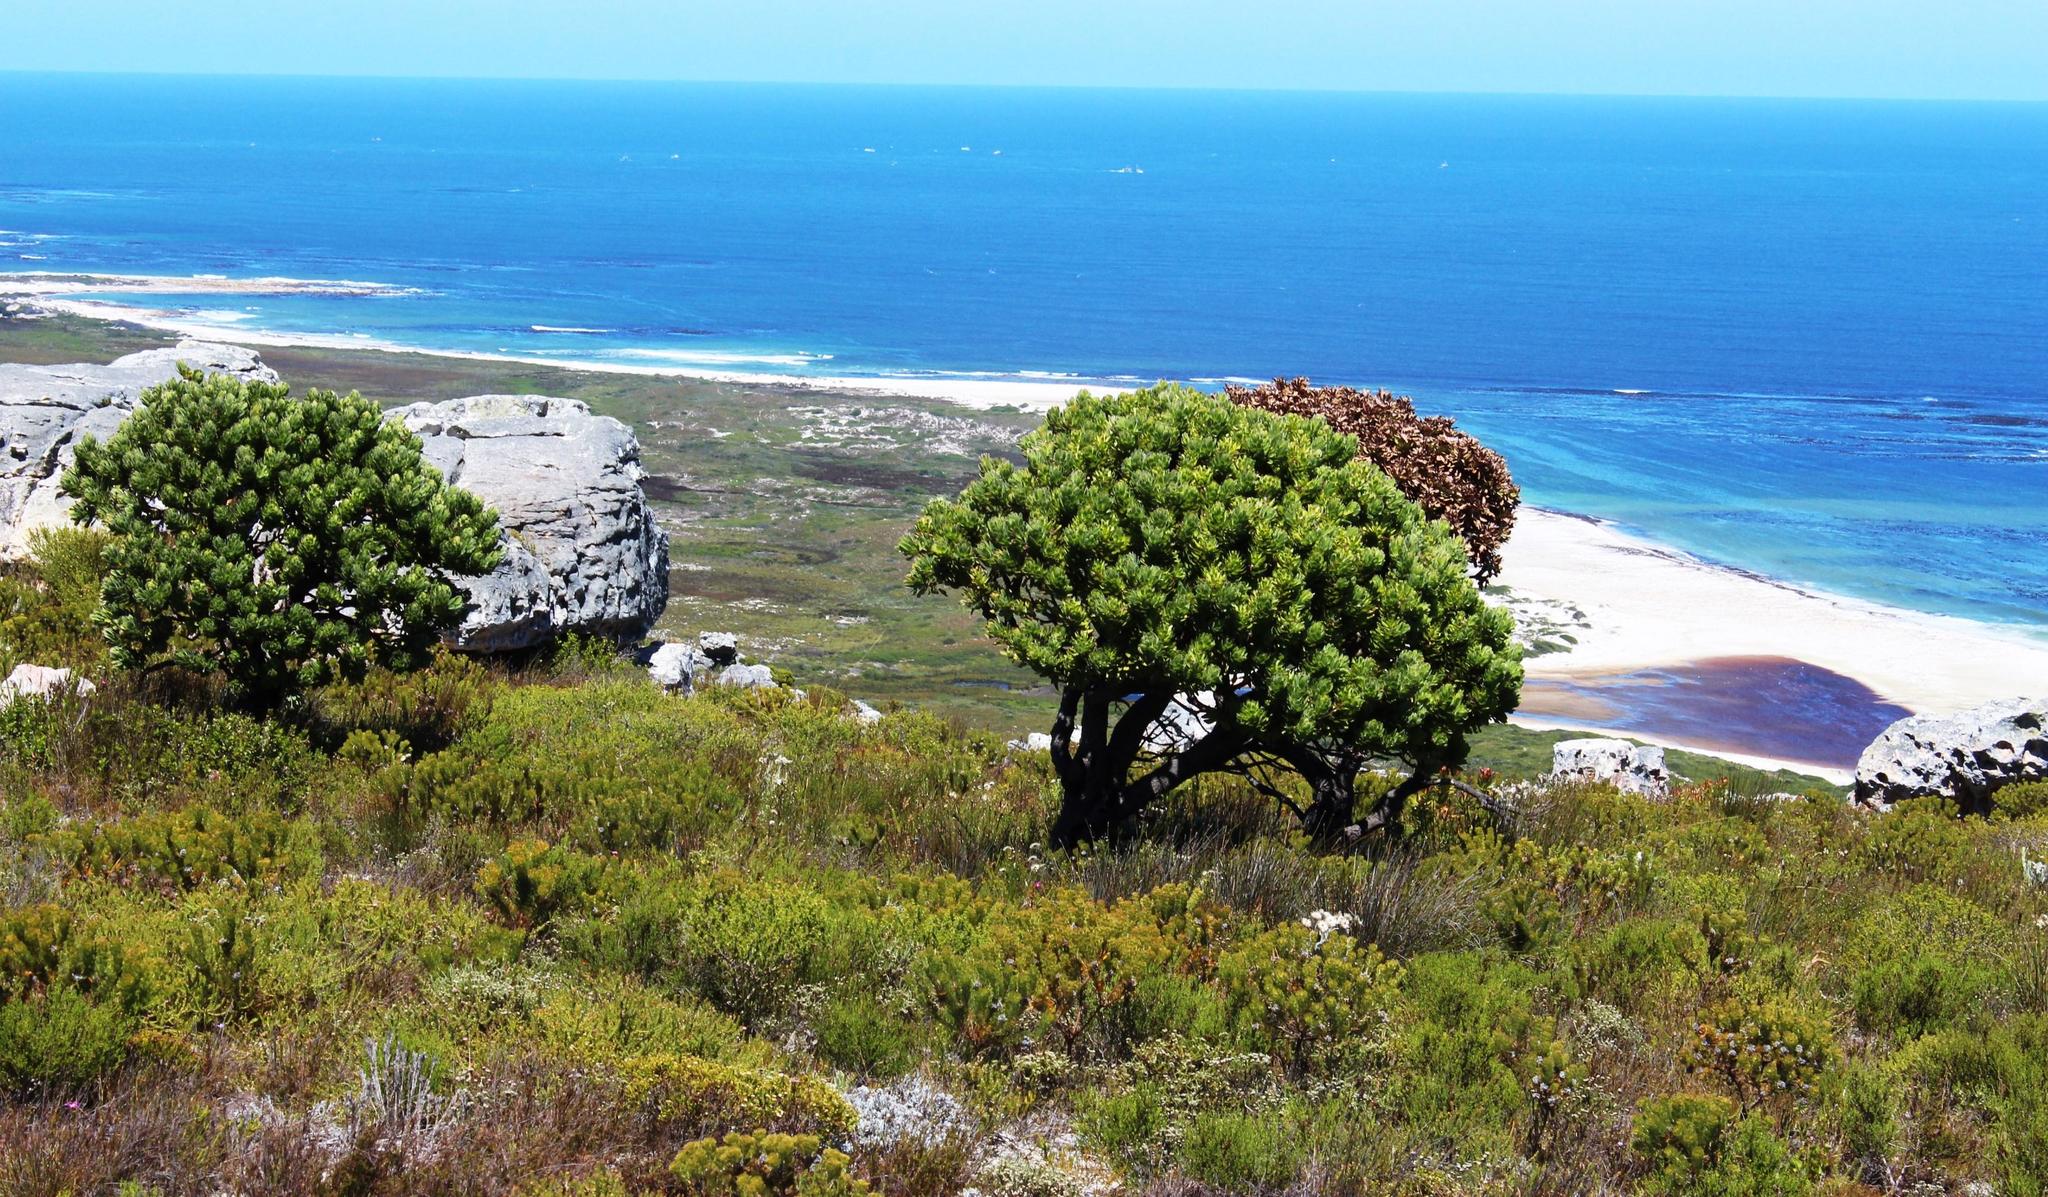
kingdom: Plantae
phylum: Tracheophyta
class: Magnoliopsida
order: Proteales
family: Proteaceae
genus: Mimetes
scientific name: Mimetes fimbriifolius
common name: Fringed bottlebrush
